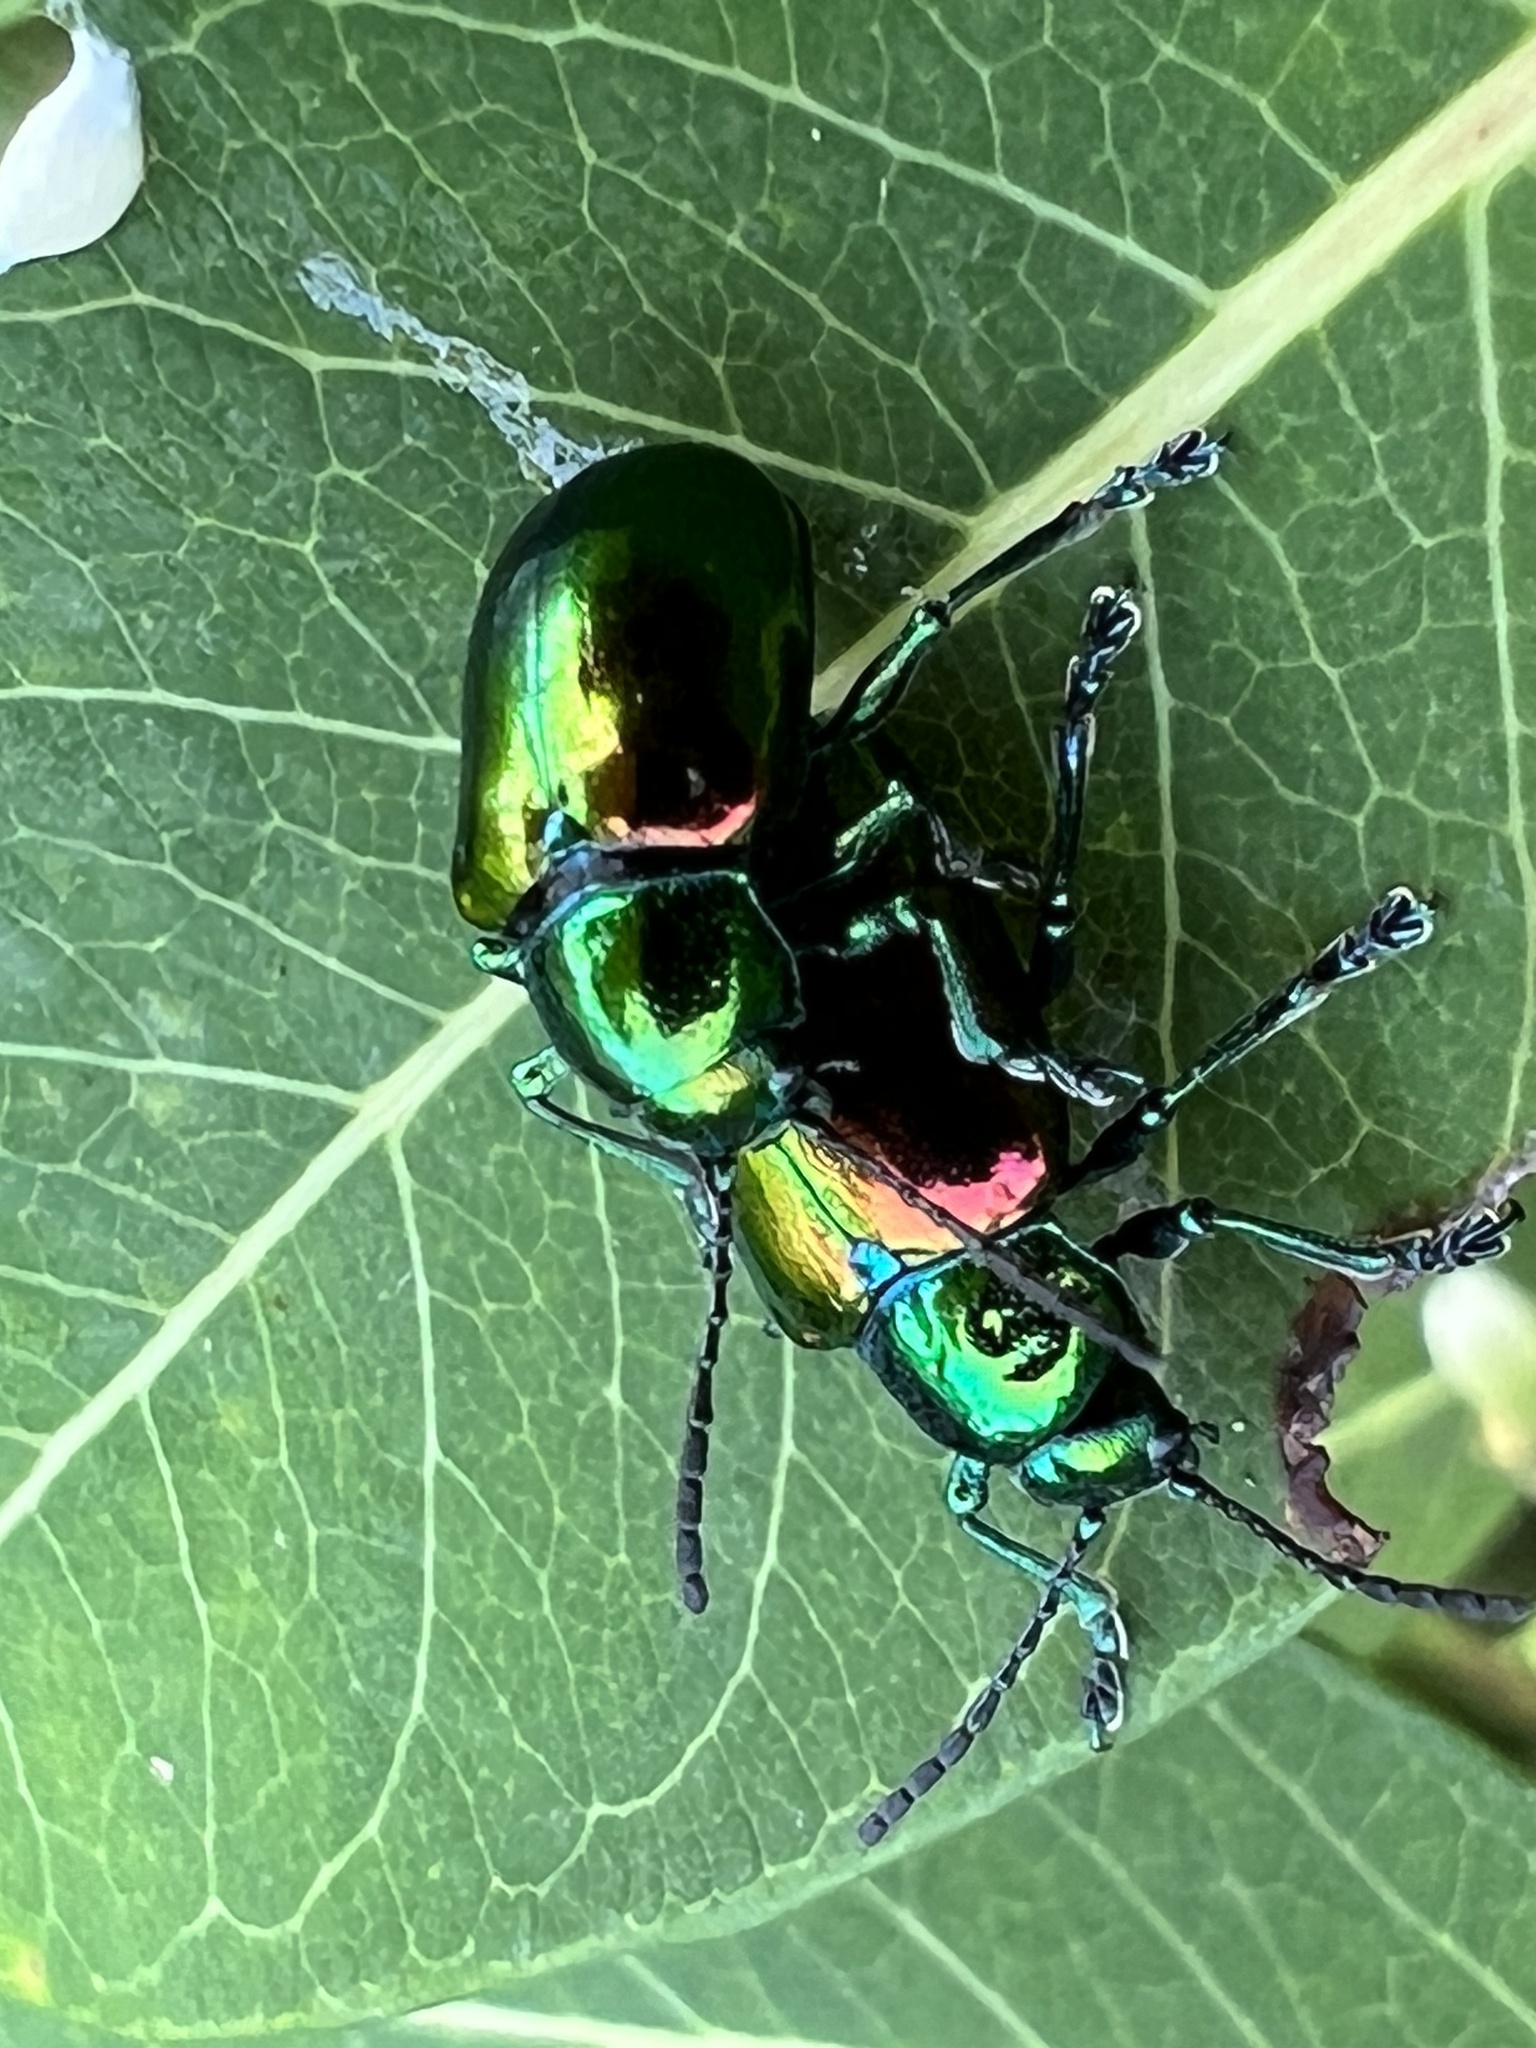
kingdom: Animalia
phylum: Arthropoda
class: Insecta
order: Coleoptera
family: Chrysomelidae
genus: Chrysochus
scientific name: Chrysochus auratus
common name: Dogbane leaf beetle
